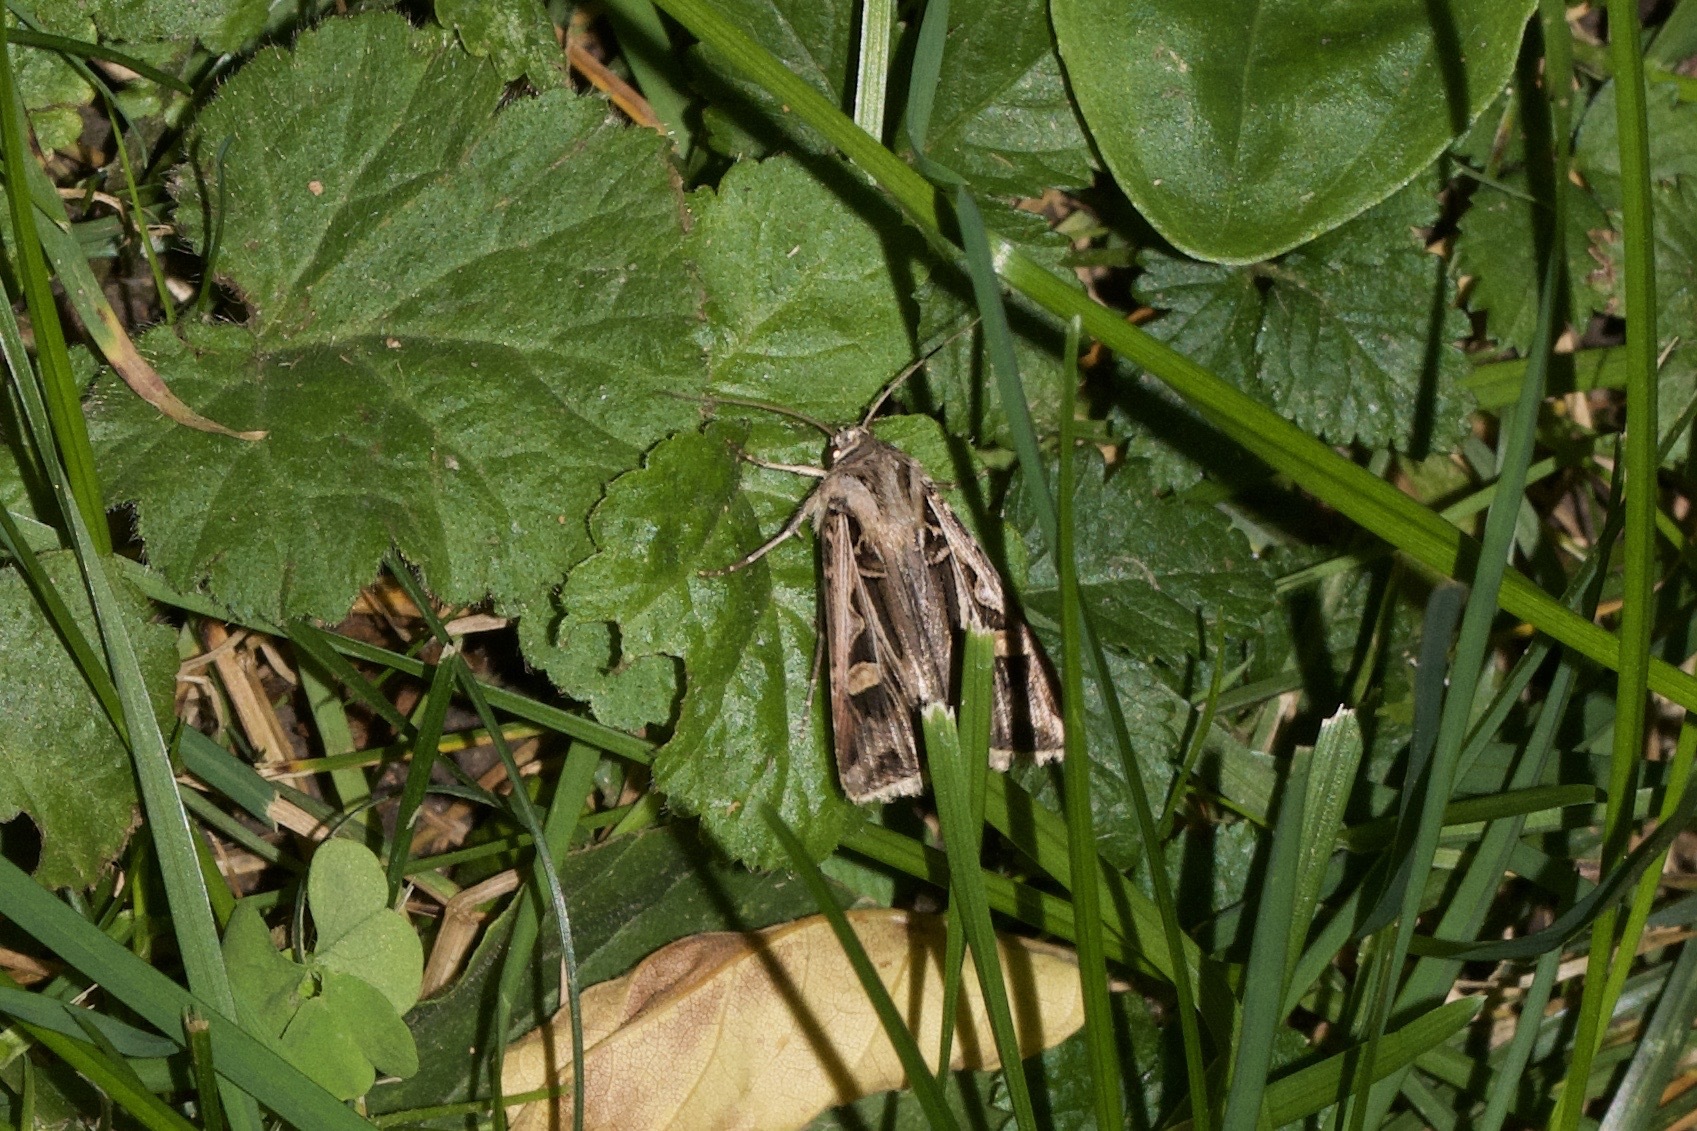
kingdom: Animalia
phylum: Arthropoda
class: Insecta
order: Lepidoptera
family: Noctuidae
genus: Feltia
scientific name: Feltia jaculifera
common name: Dingy cutworm moth
